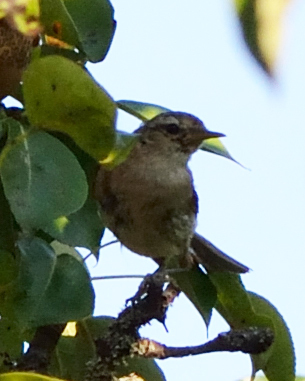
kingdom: Animalia
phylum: Chordata
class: Aves
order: Passeriformes
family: Troglodytidae
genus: Troglodytes
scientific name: Troglodytes troglodytes
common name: Eurasian wren
